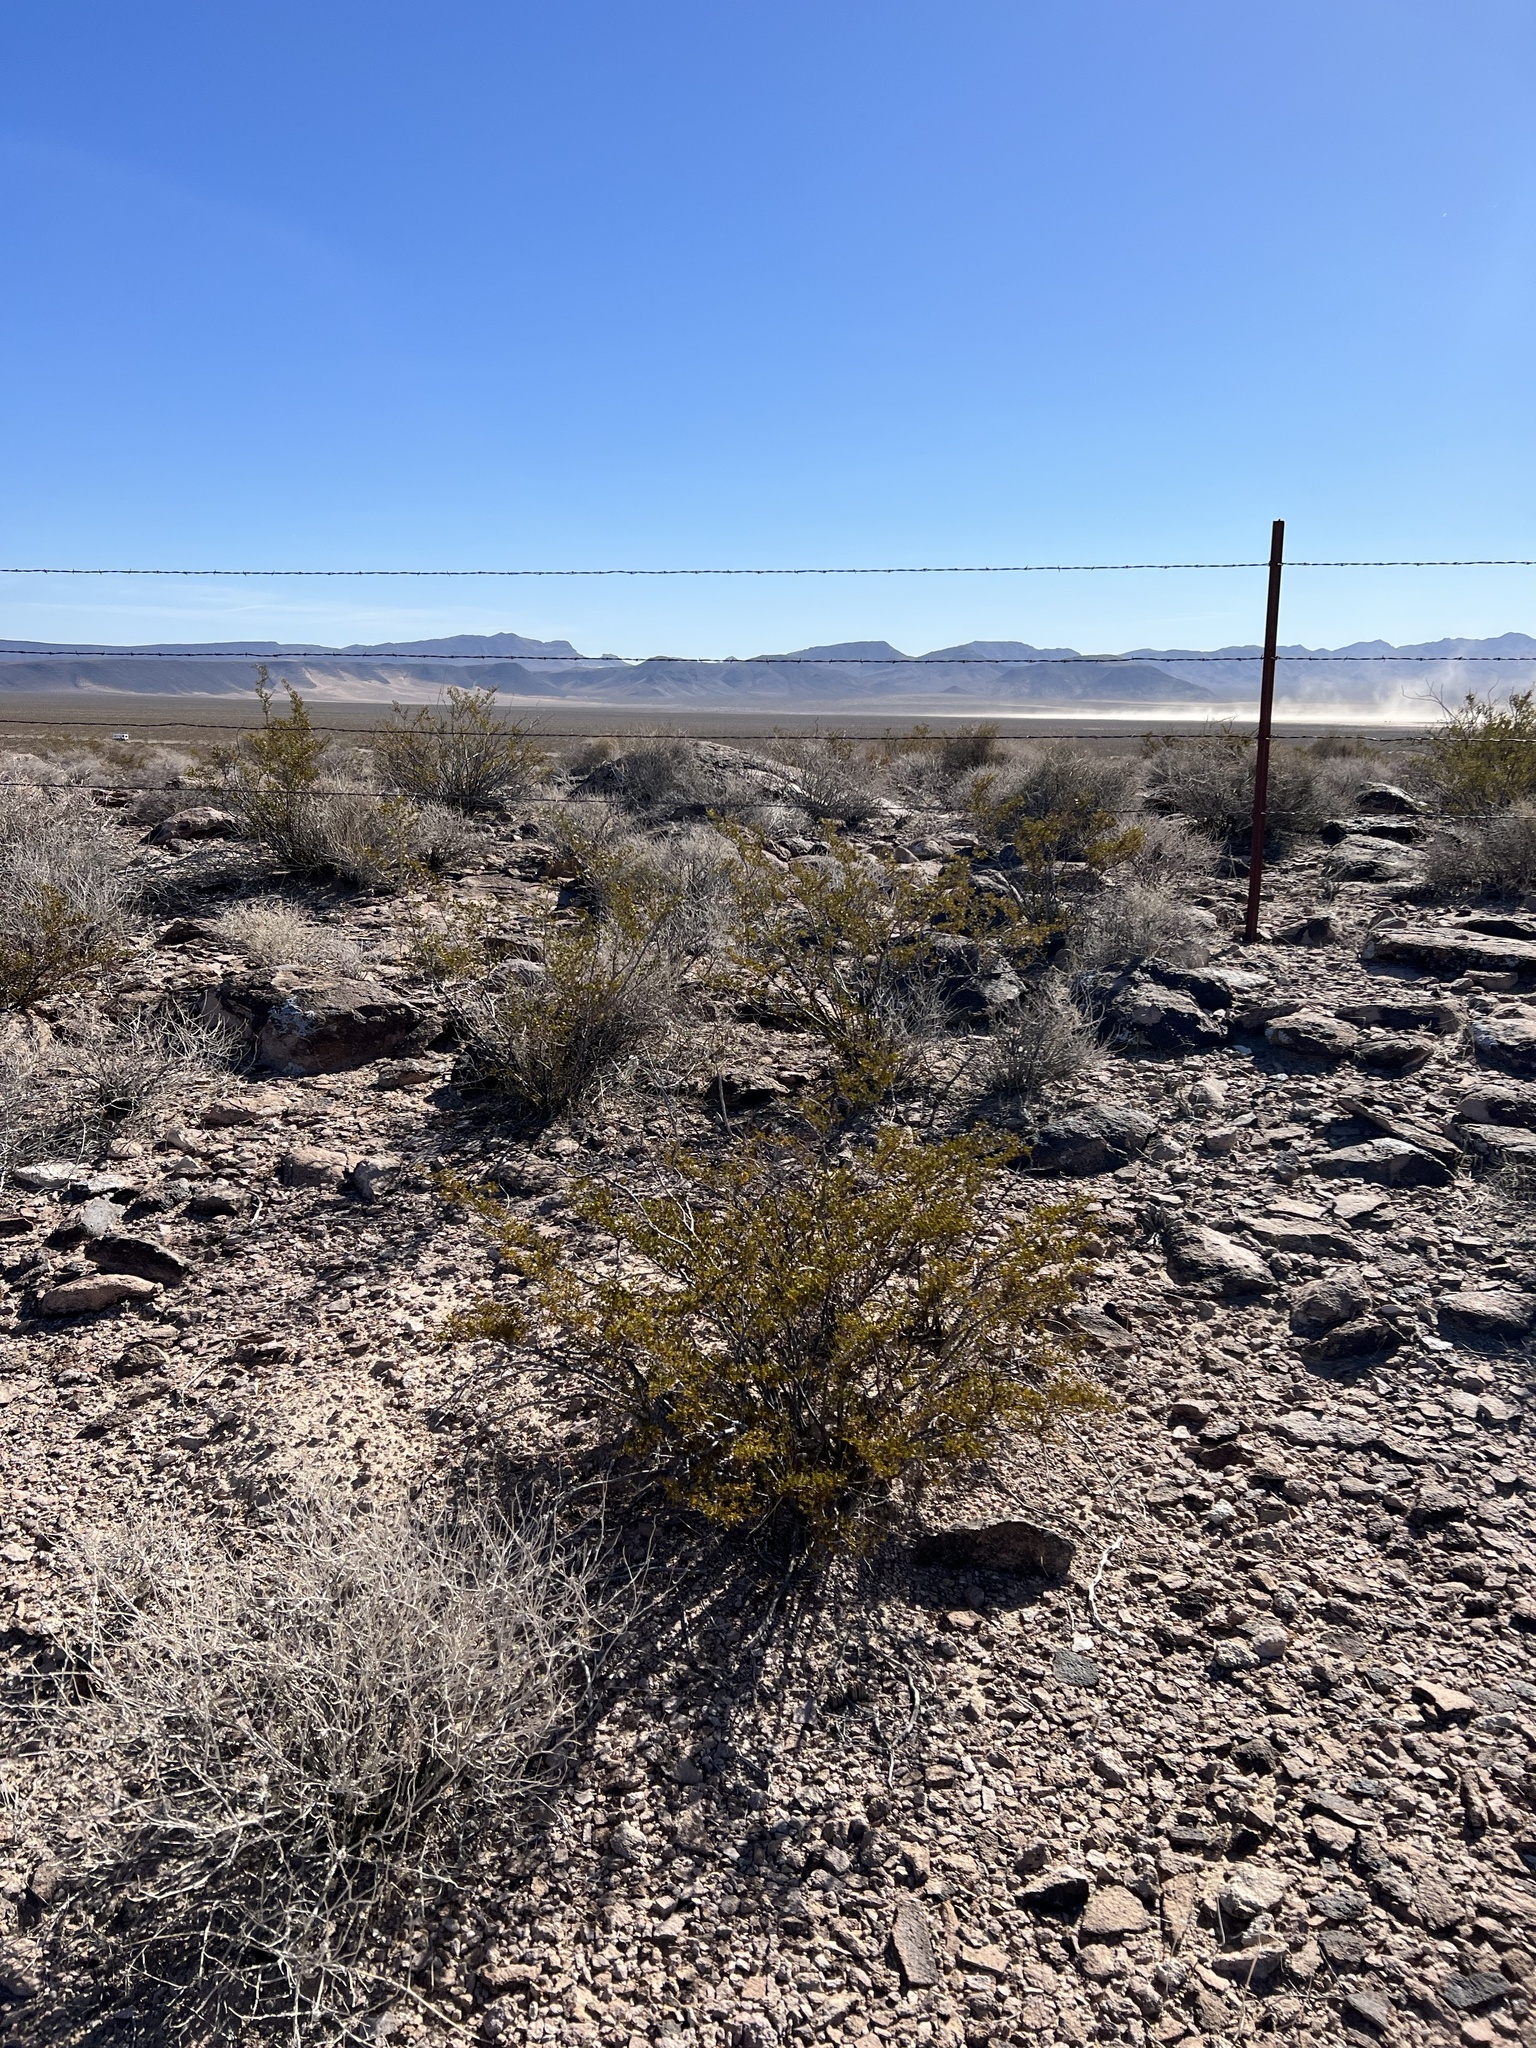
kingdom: Plantae
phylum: Tracheophyta
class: Magnoliopsida
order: Zygophyllales
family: Zygophyllaceae
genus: Larrea
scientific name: Larrea tridentata
